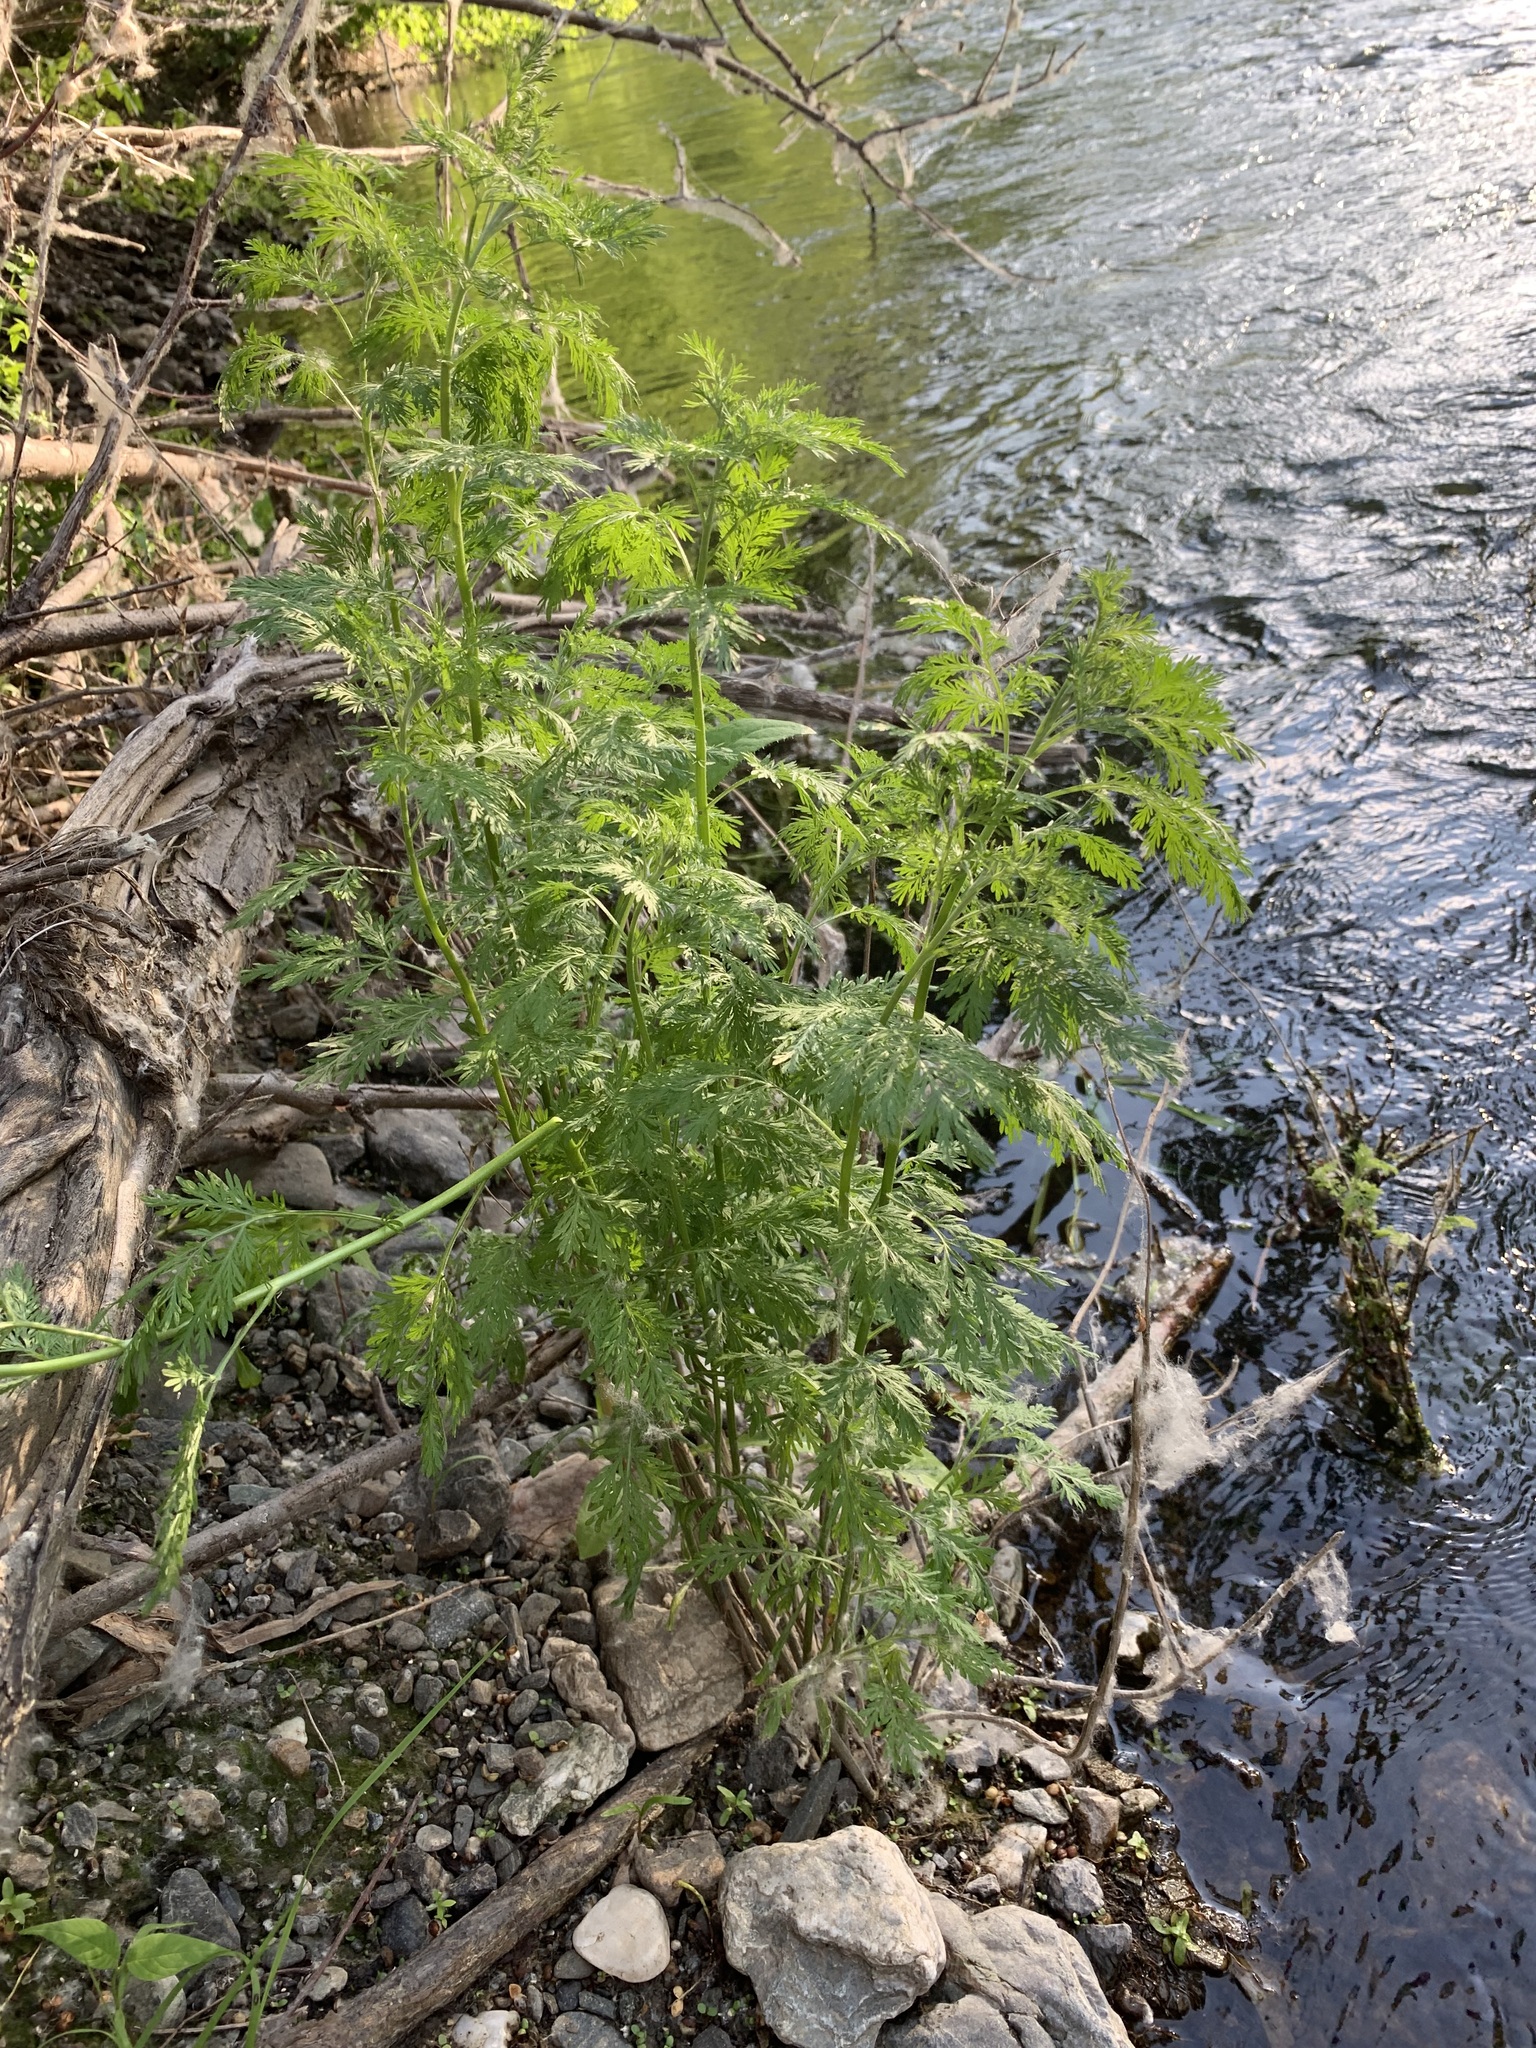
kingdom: Plantae
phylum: Tracheophyta
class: Magnoliopsida
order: Asterales
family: Asteraceae
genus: Artemisia
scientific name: Artemisia abrotanum
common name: Southernwood
